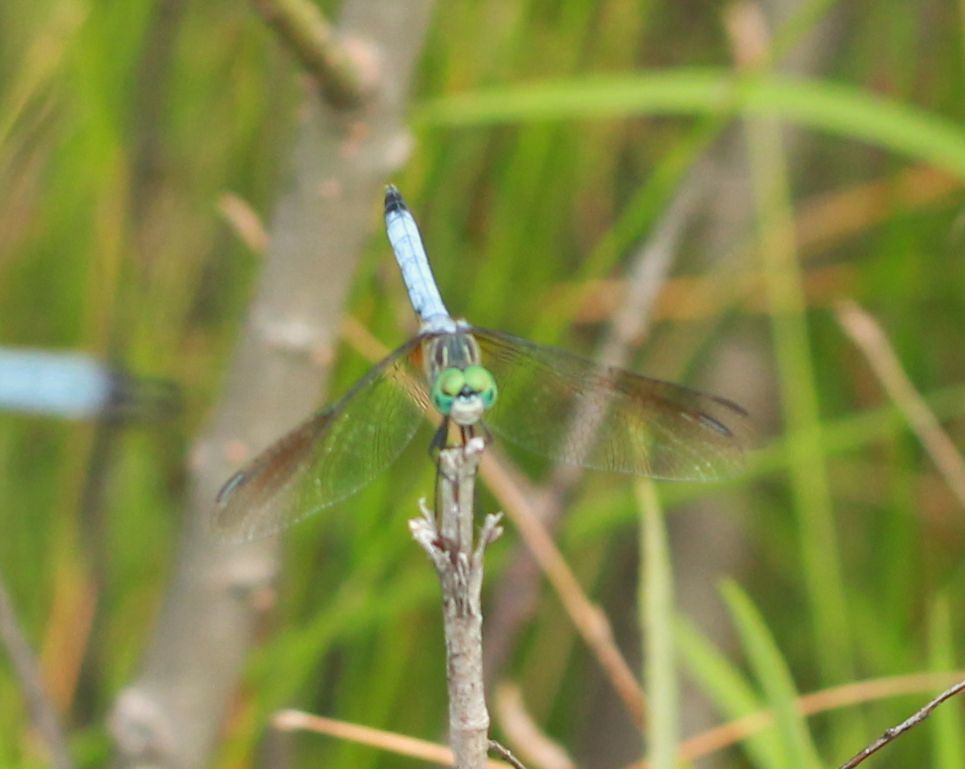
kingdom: Animalia
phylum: Arthropoda
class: Insecta
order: Odonata
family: Libellulidae
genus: Pachydiplax
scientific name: Pachydiplax longipennis
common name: Blue dasher
